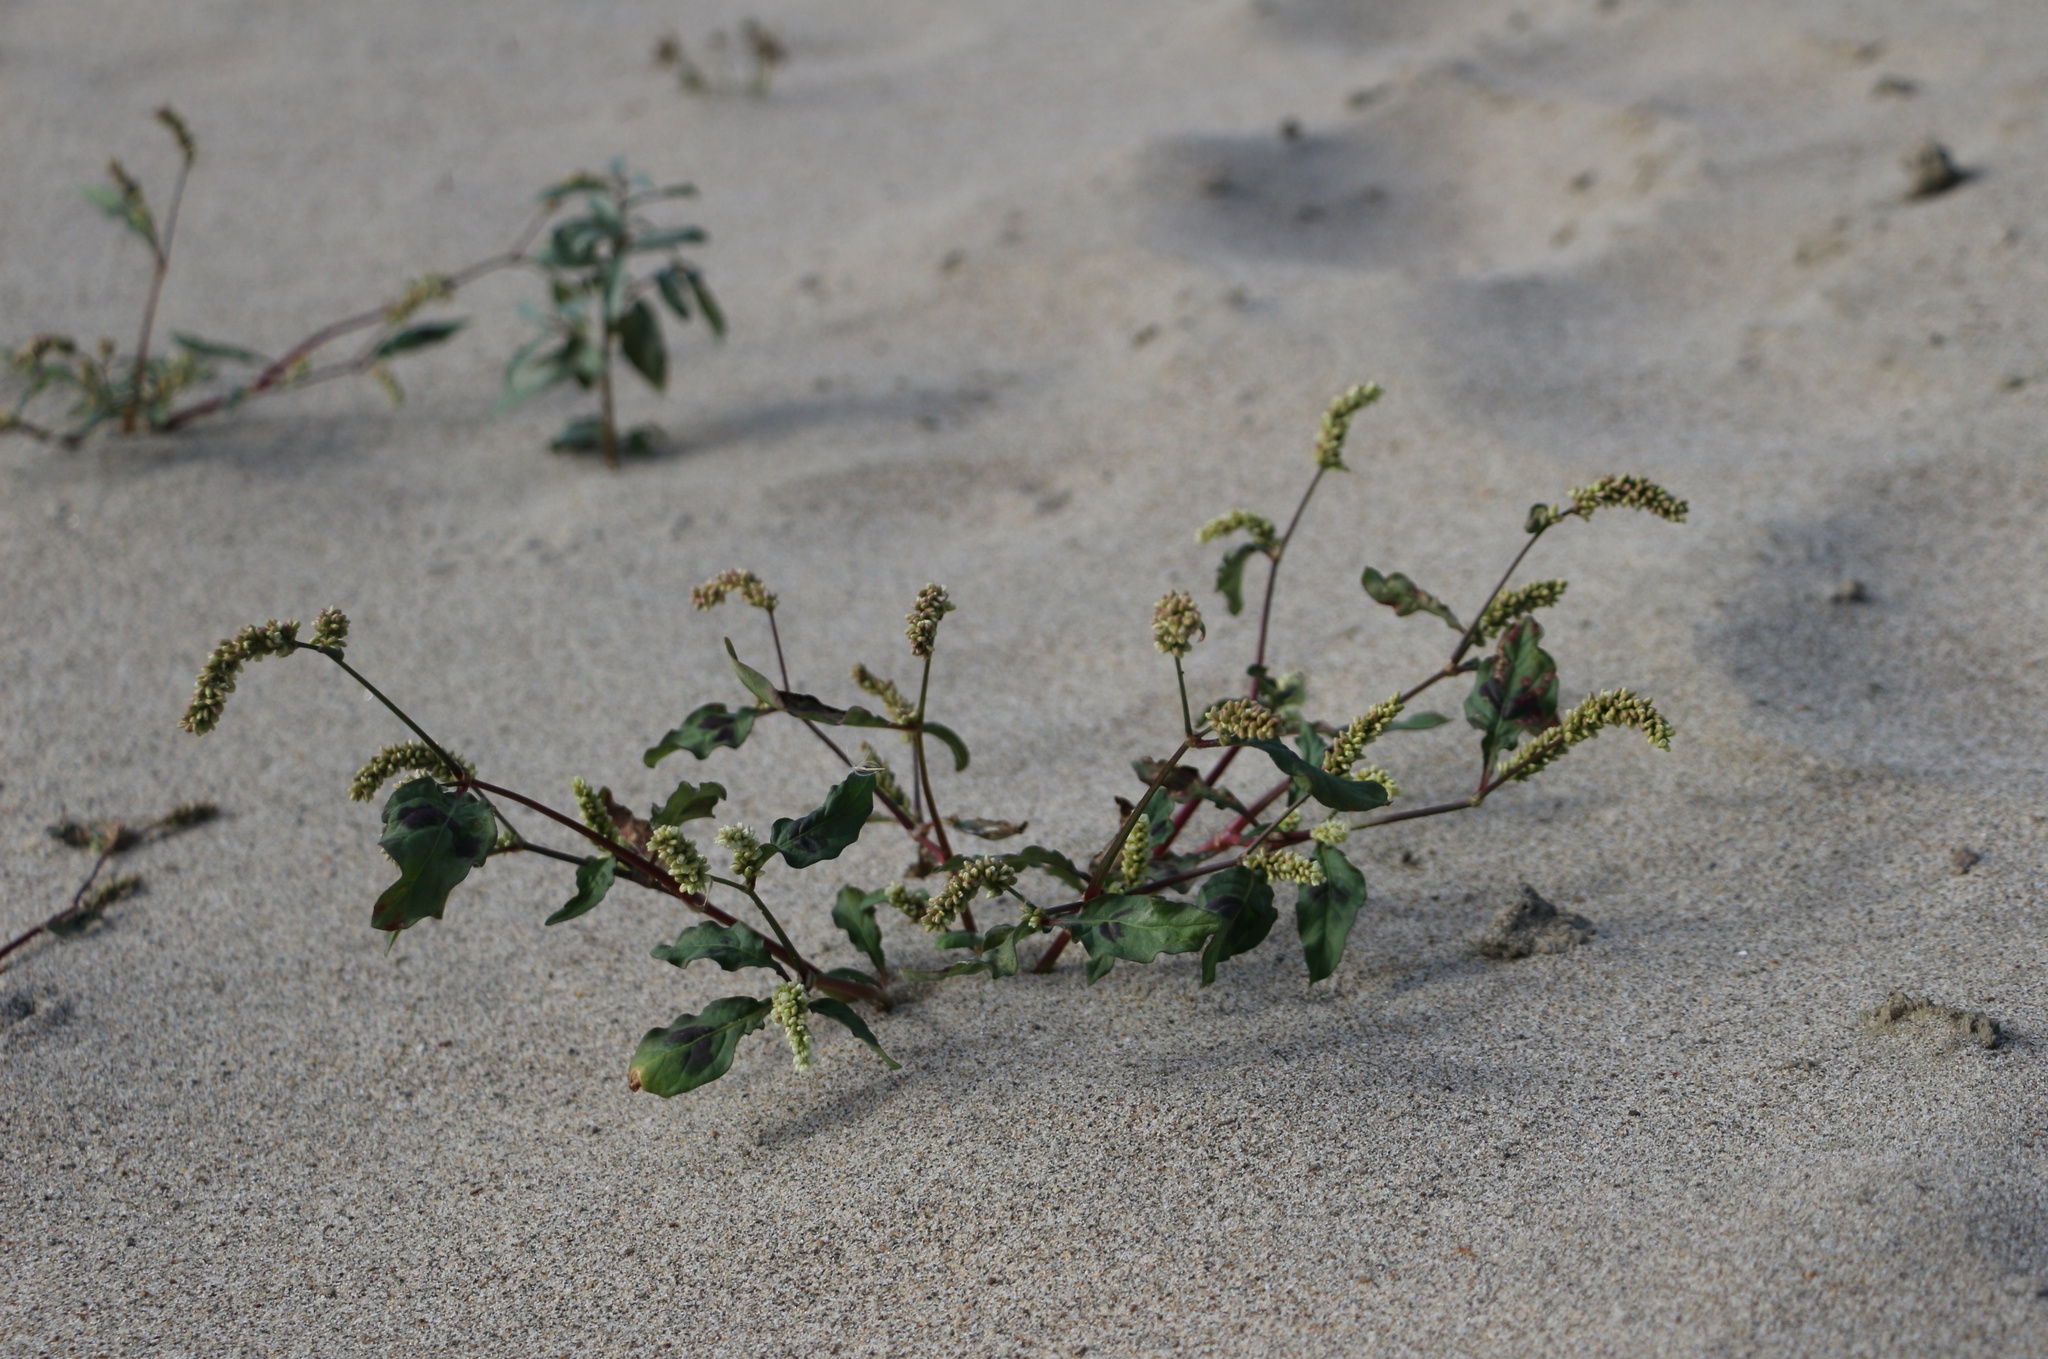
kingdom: Plantae
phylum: Tracheophyta
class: Magnoliopsida
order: Caryophyllales
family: Polygonaceae
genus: Persicaria
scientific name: Persicaria lapathifolia
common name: Curlytop knotweed
